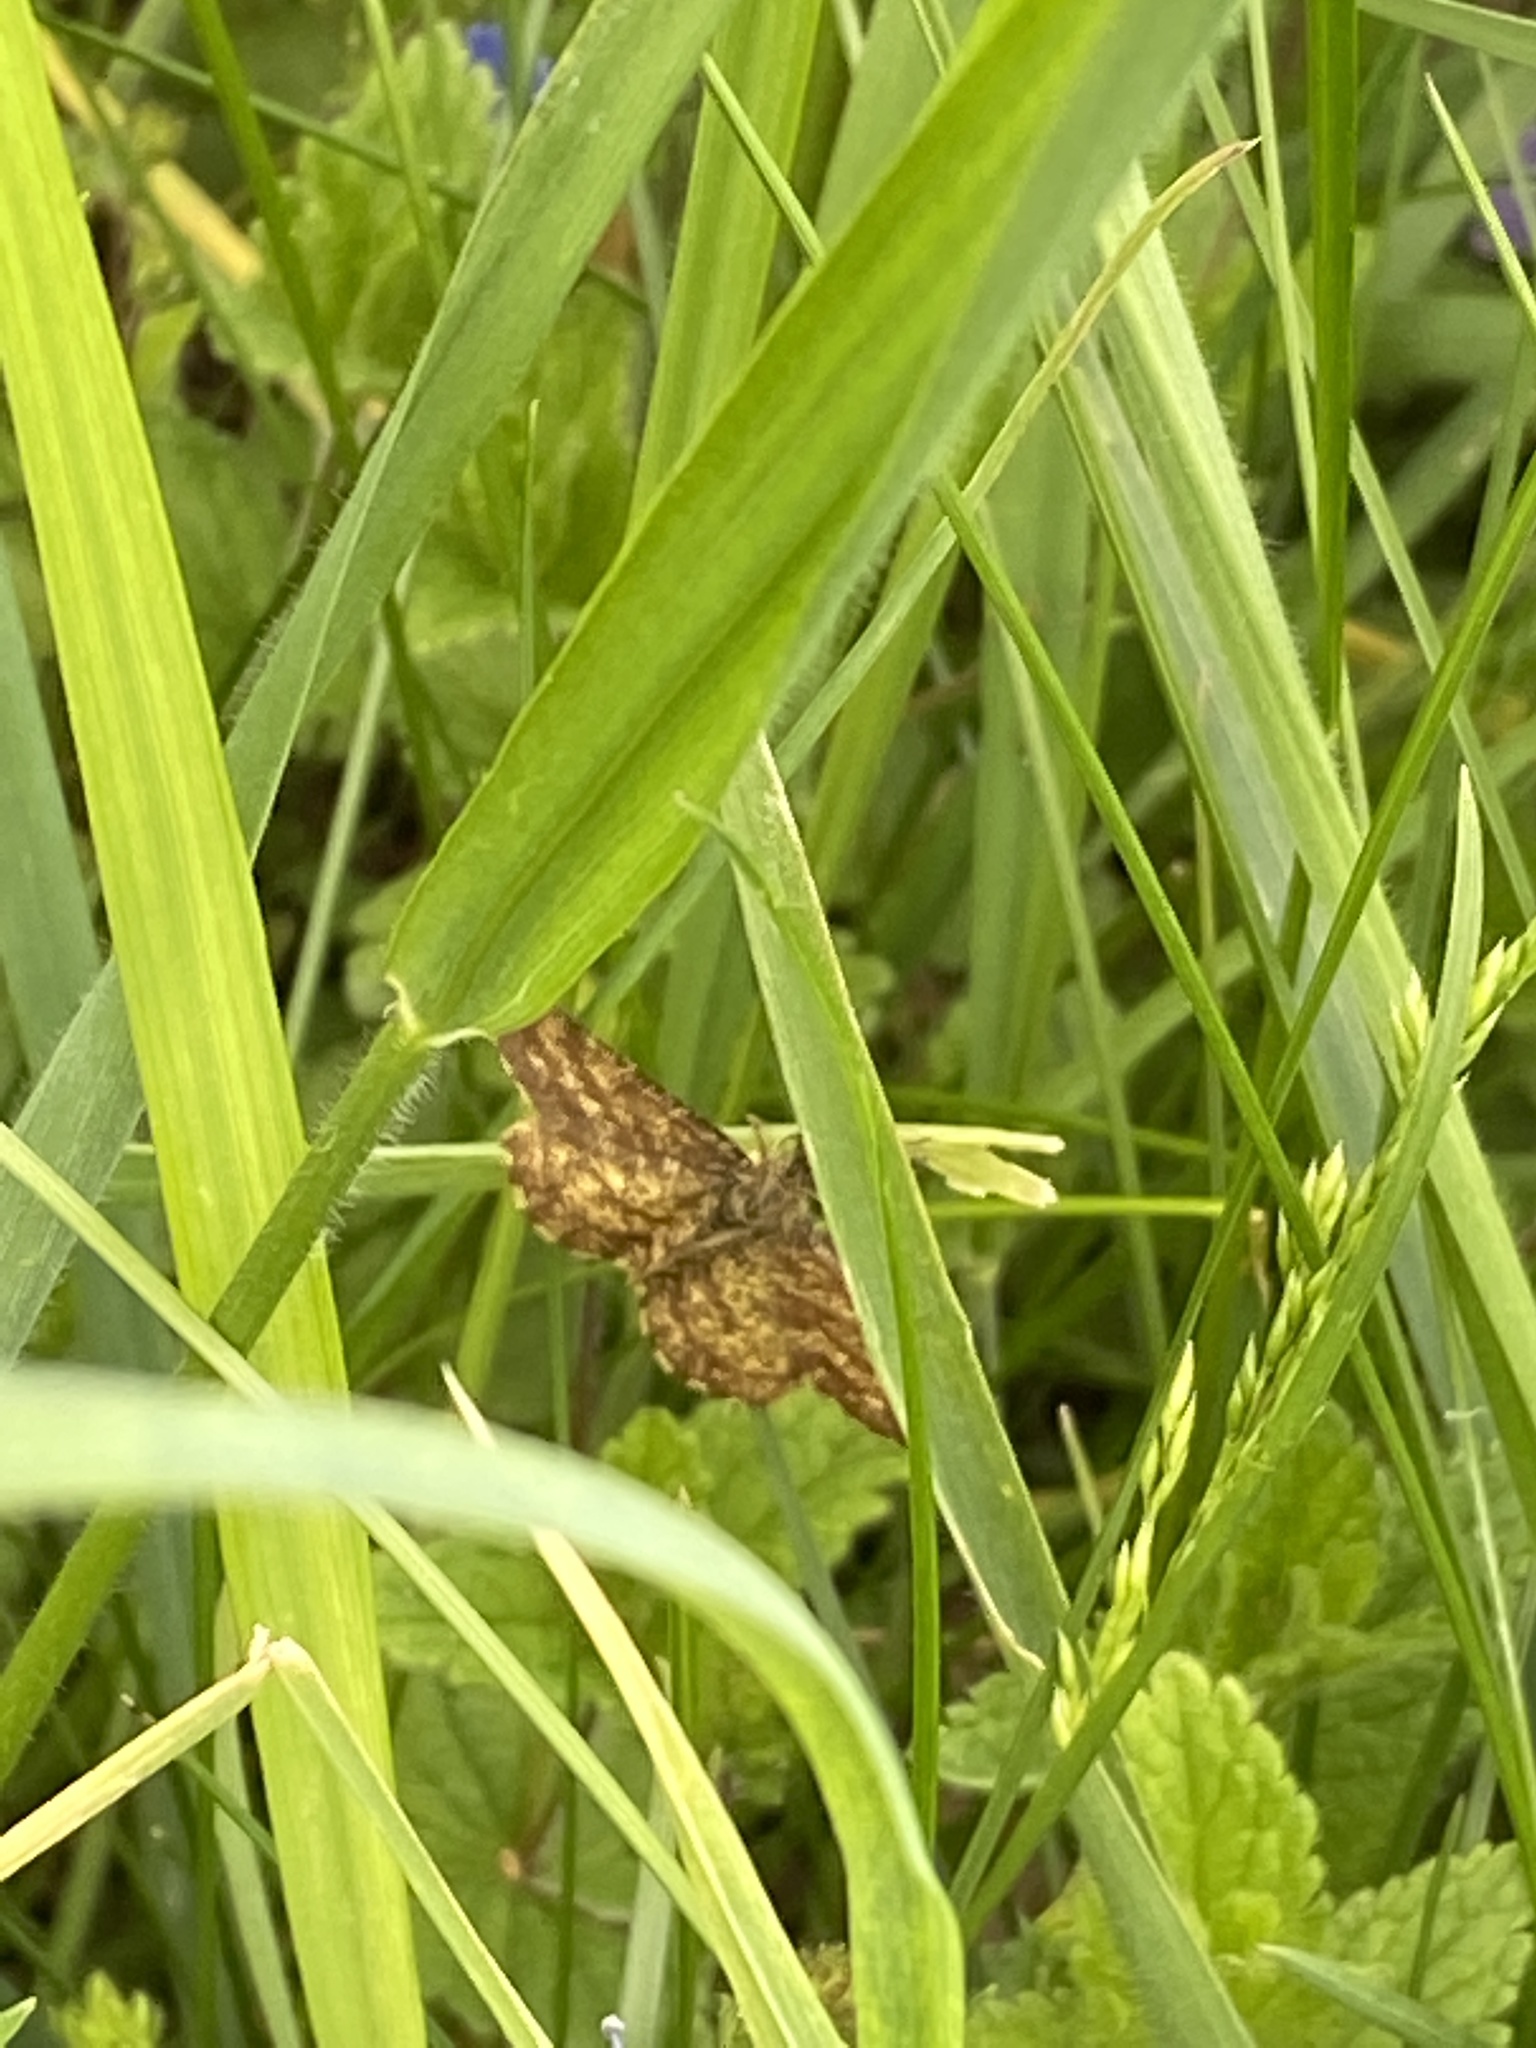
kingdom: Animalia
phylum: Arthropoda
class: Insecta
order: Lepidoptera
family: Geometridae
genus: Ematurga
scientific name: Ematurga atomaria
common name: Common heath
